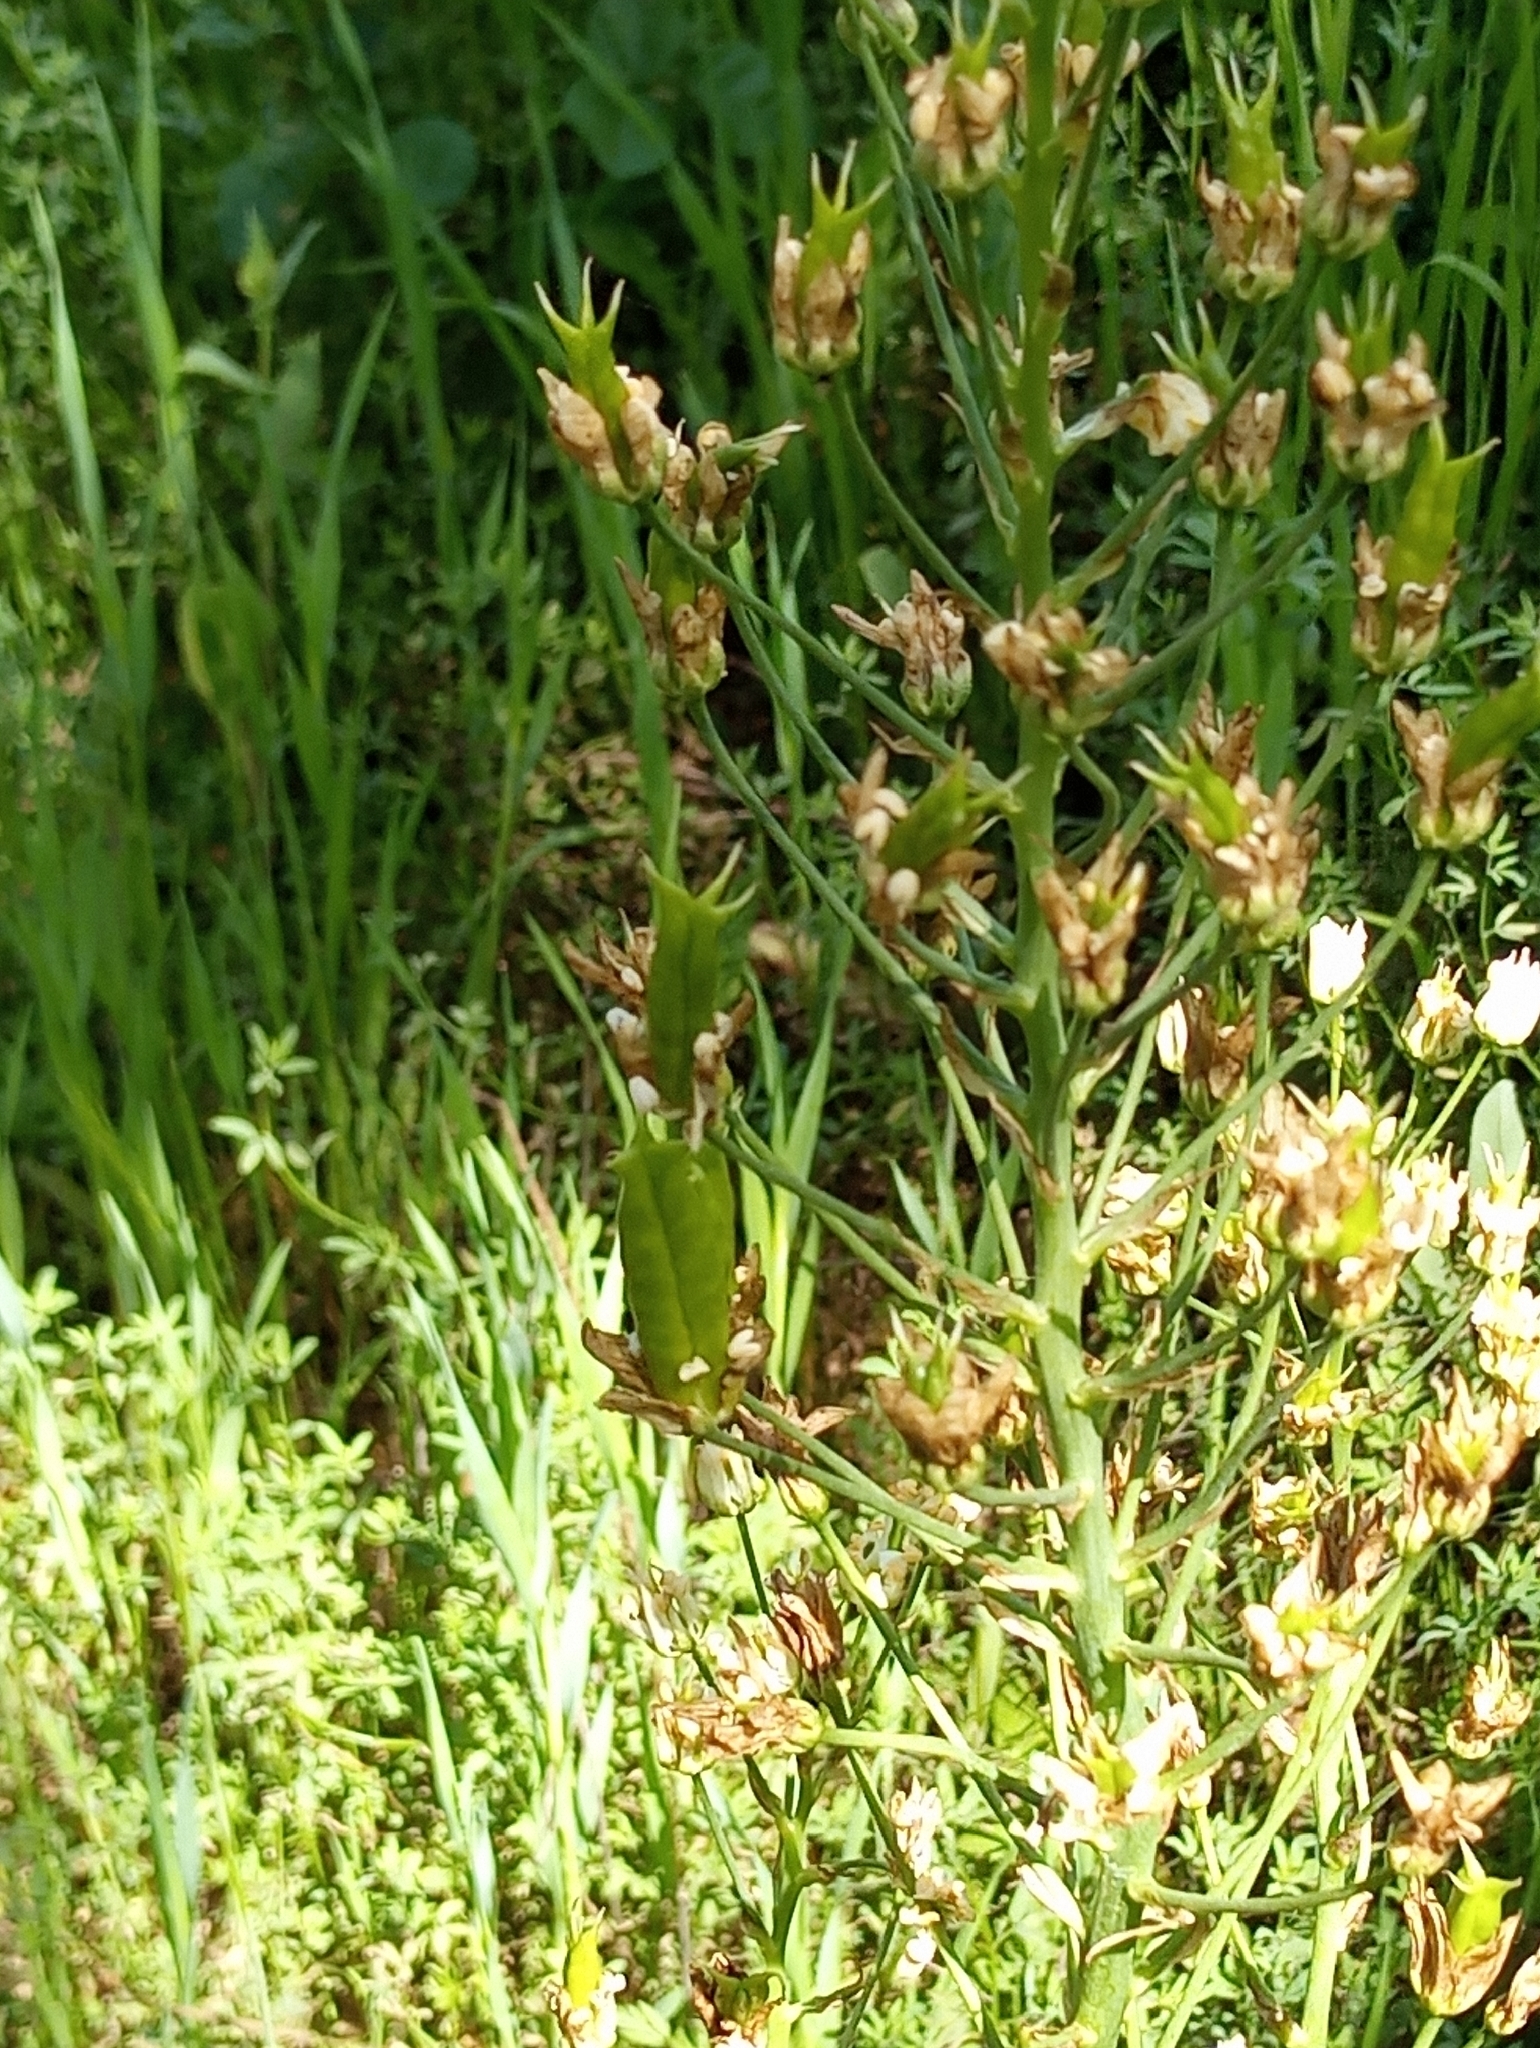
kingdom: Plantae
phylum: Tracheophyta
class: Liliopsida
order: Liliales
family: Melanthiaceae
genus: Toxicoscordion
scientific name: Toxicoscordion fremontii
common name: Fremont's death camas
